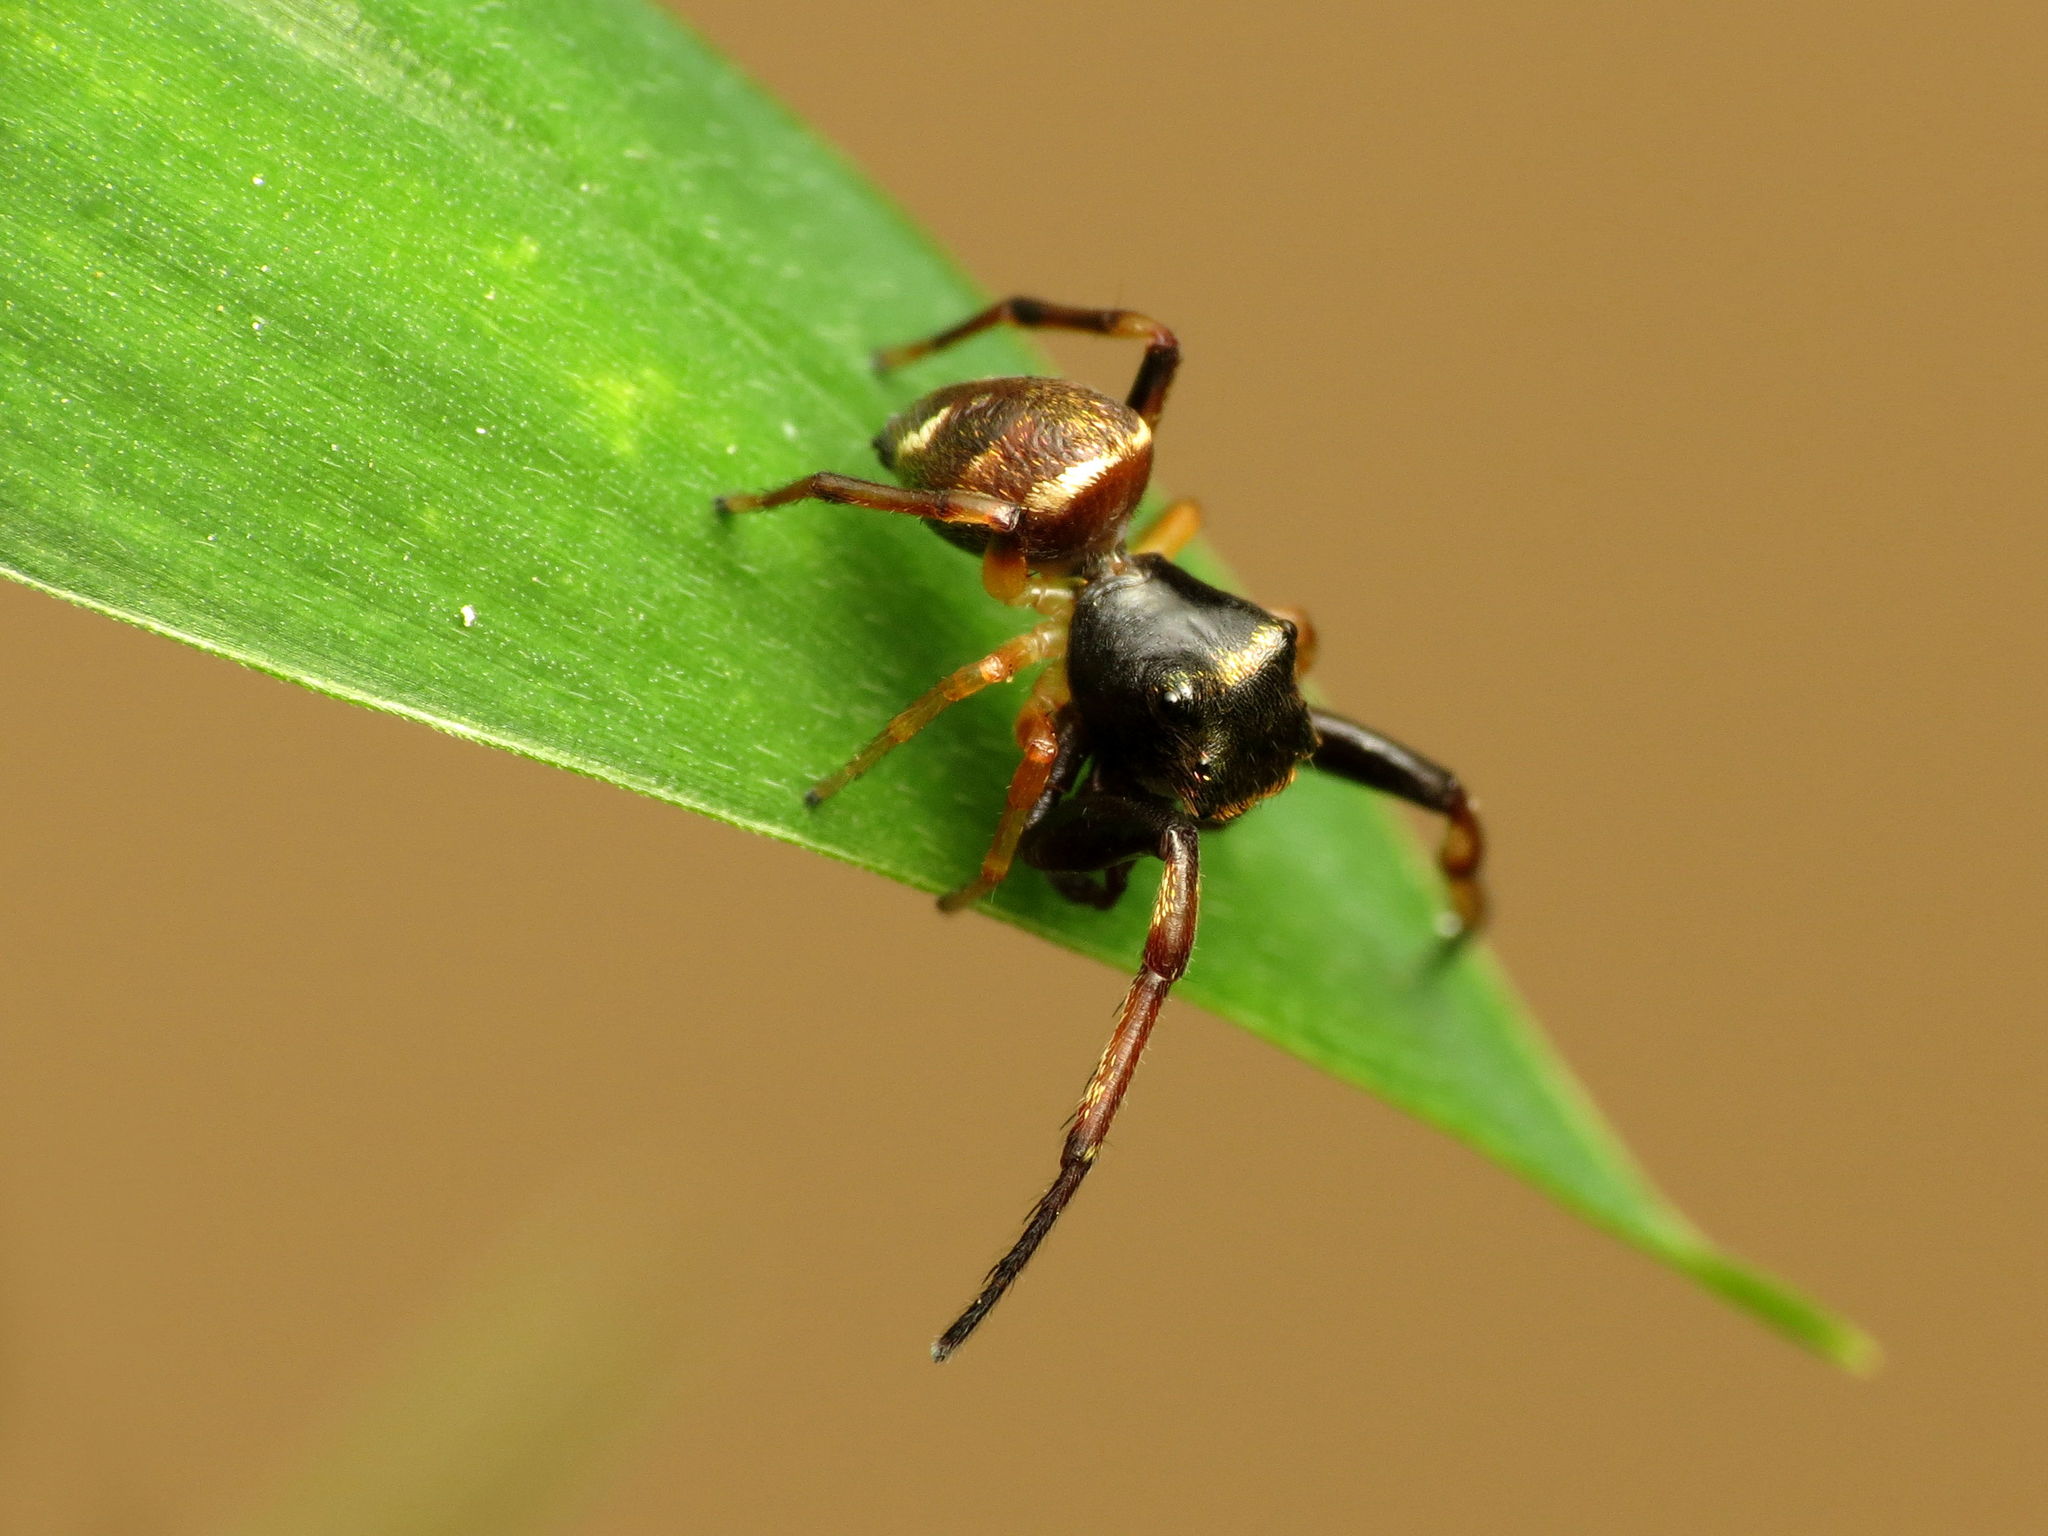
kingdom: Animalia
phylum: Arthropoda
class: Arachnida
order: Araneae
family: Salticidae
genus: Zygoballus
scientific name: Zygoballus rufipes
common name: Jumping spiders
